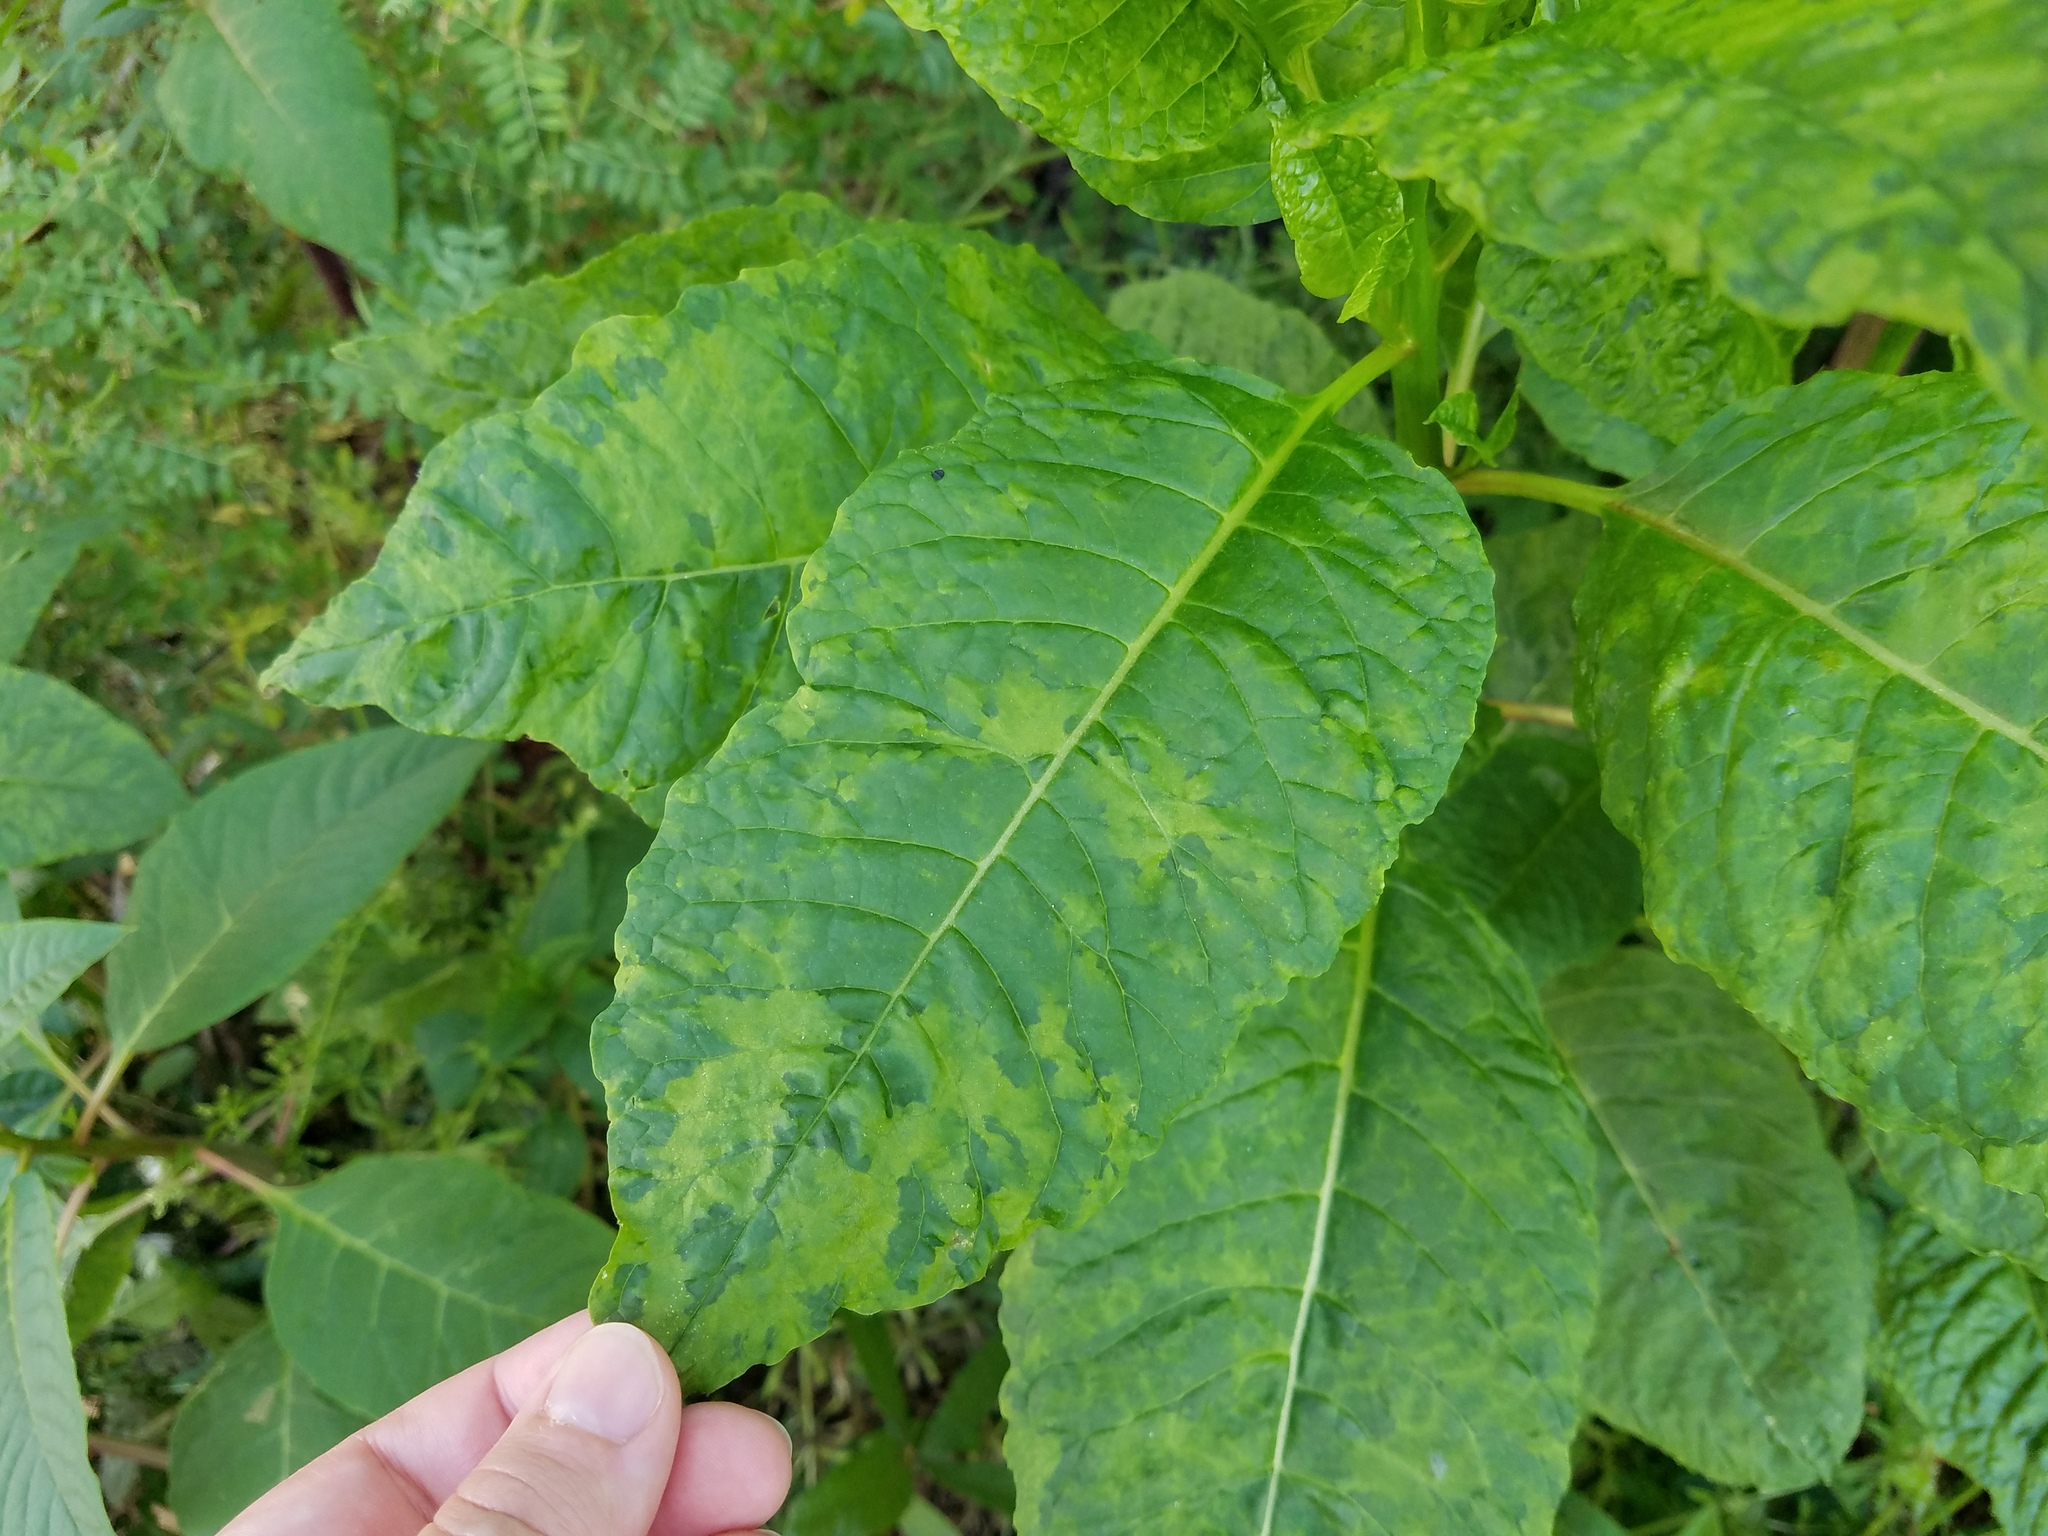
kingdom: Viruses
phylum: Pisuviricota
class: Stelpaviricetes
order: Patatavirales
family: Potyviridae
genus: Potyvirus
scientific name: Potyvirus Pokeweed mosaic virus
